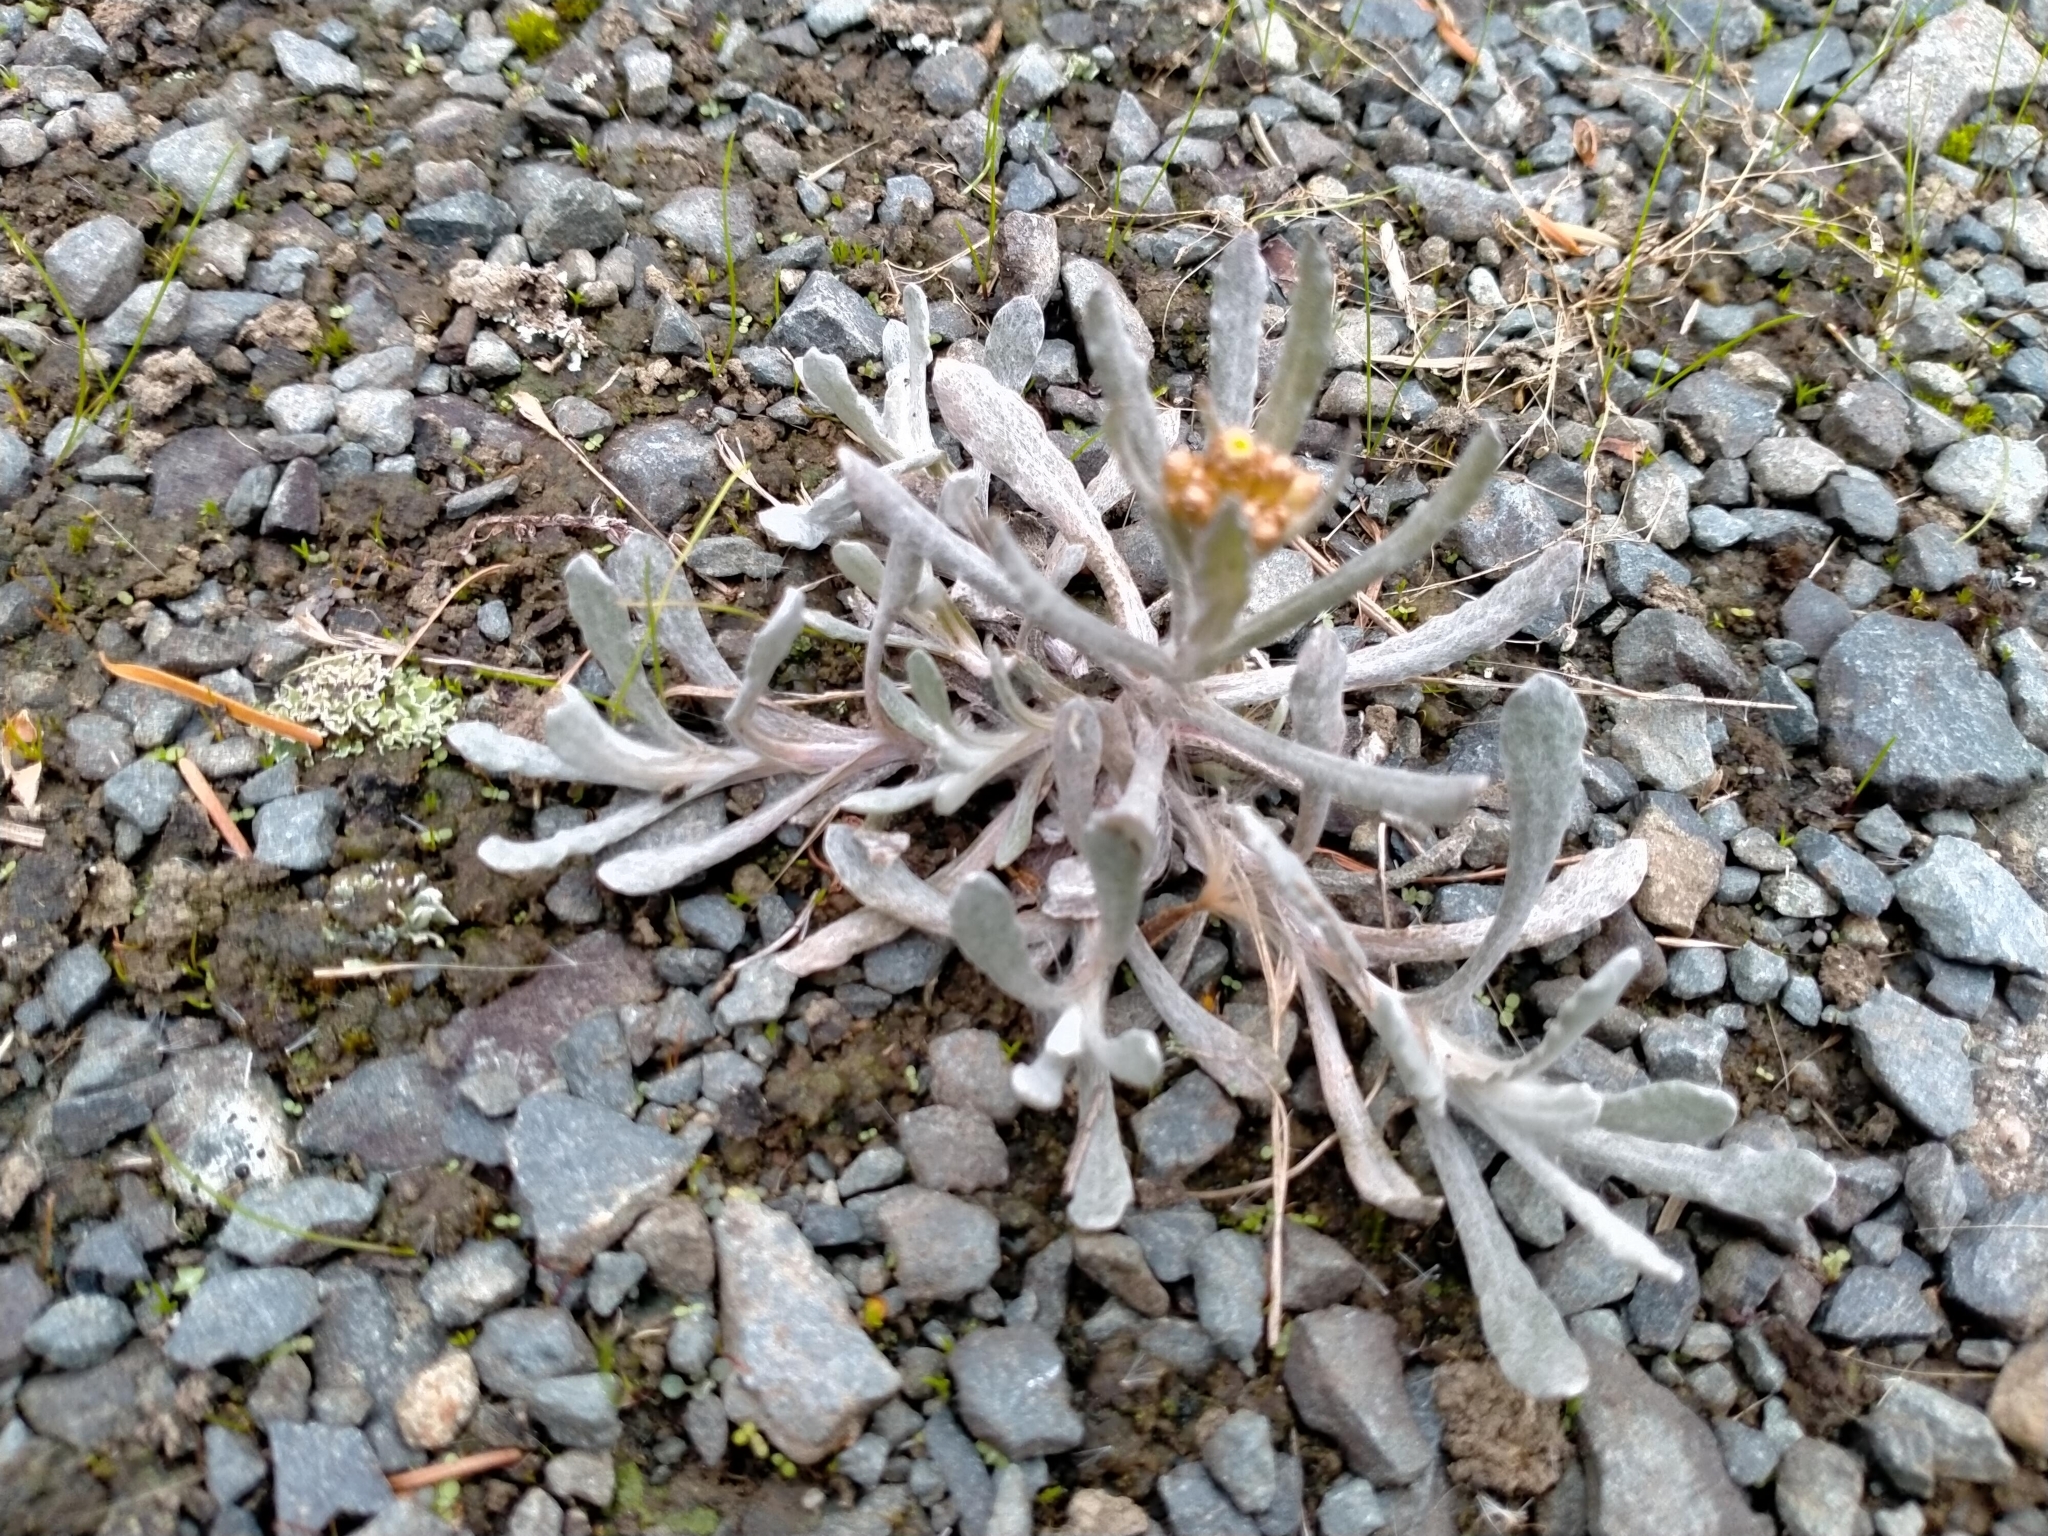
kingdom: Plantae
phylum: Tracheophyta
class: Magnoliopsida
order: Asterales
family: Asteraceae
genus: Pseudognaphalium
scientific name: Pseudognaphalium
